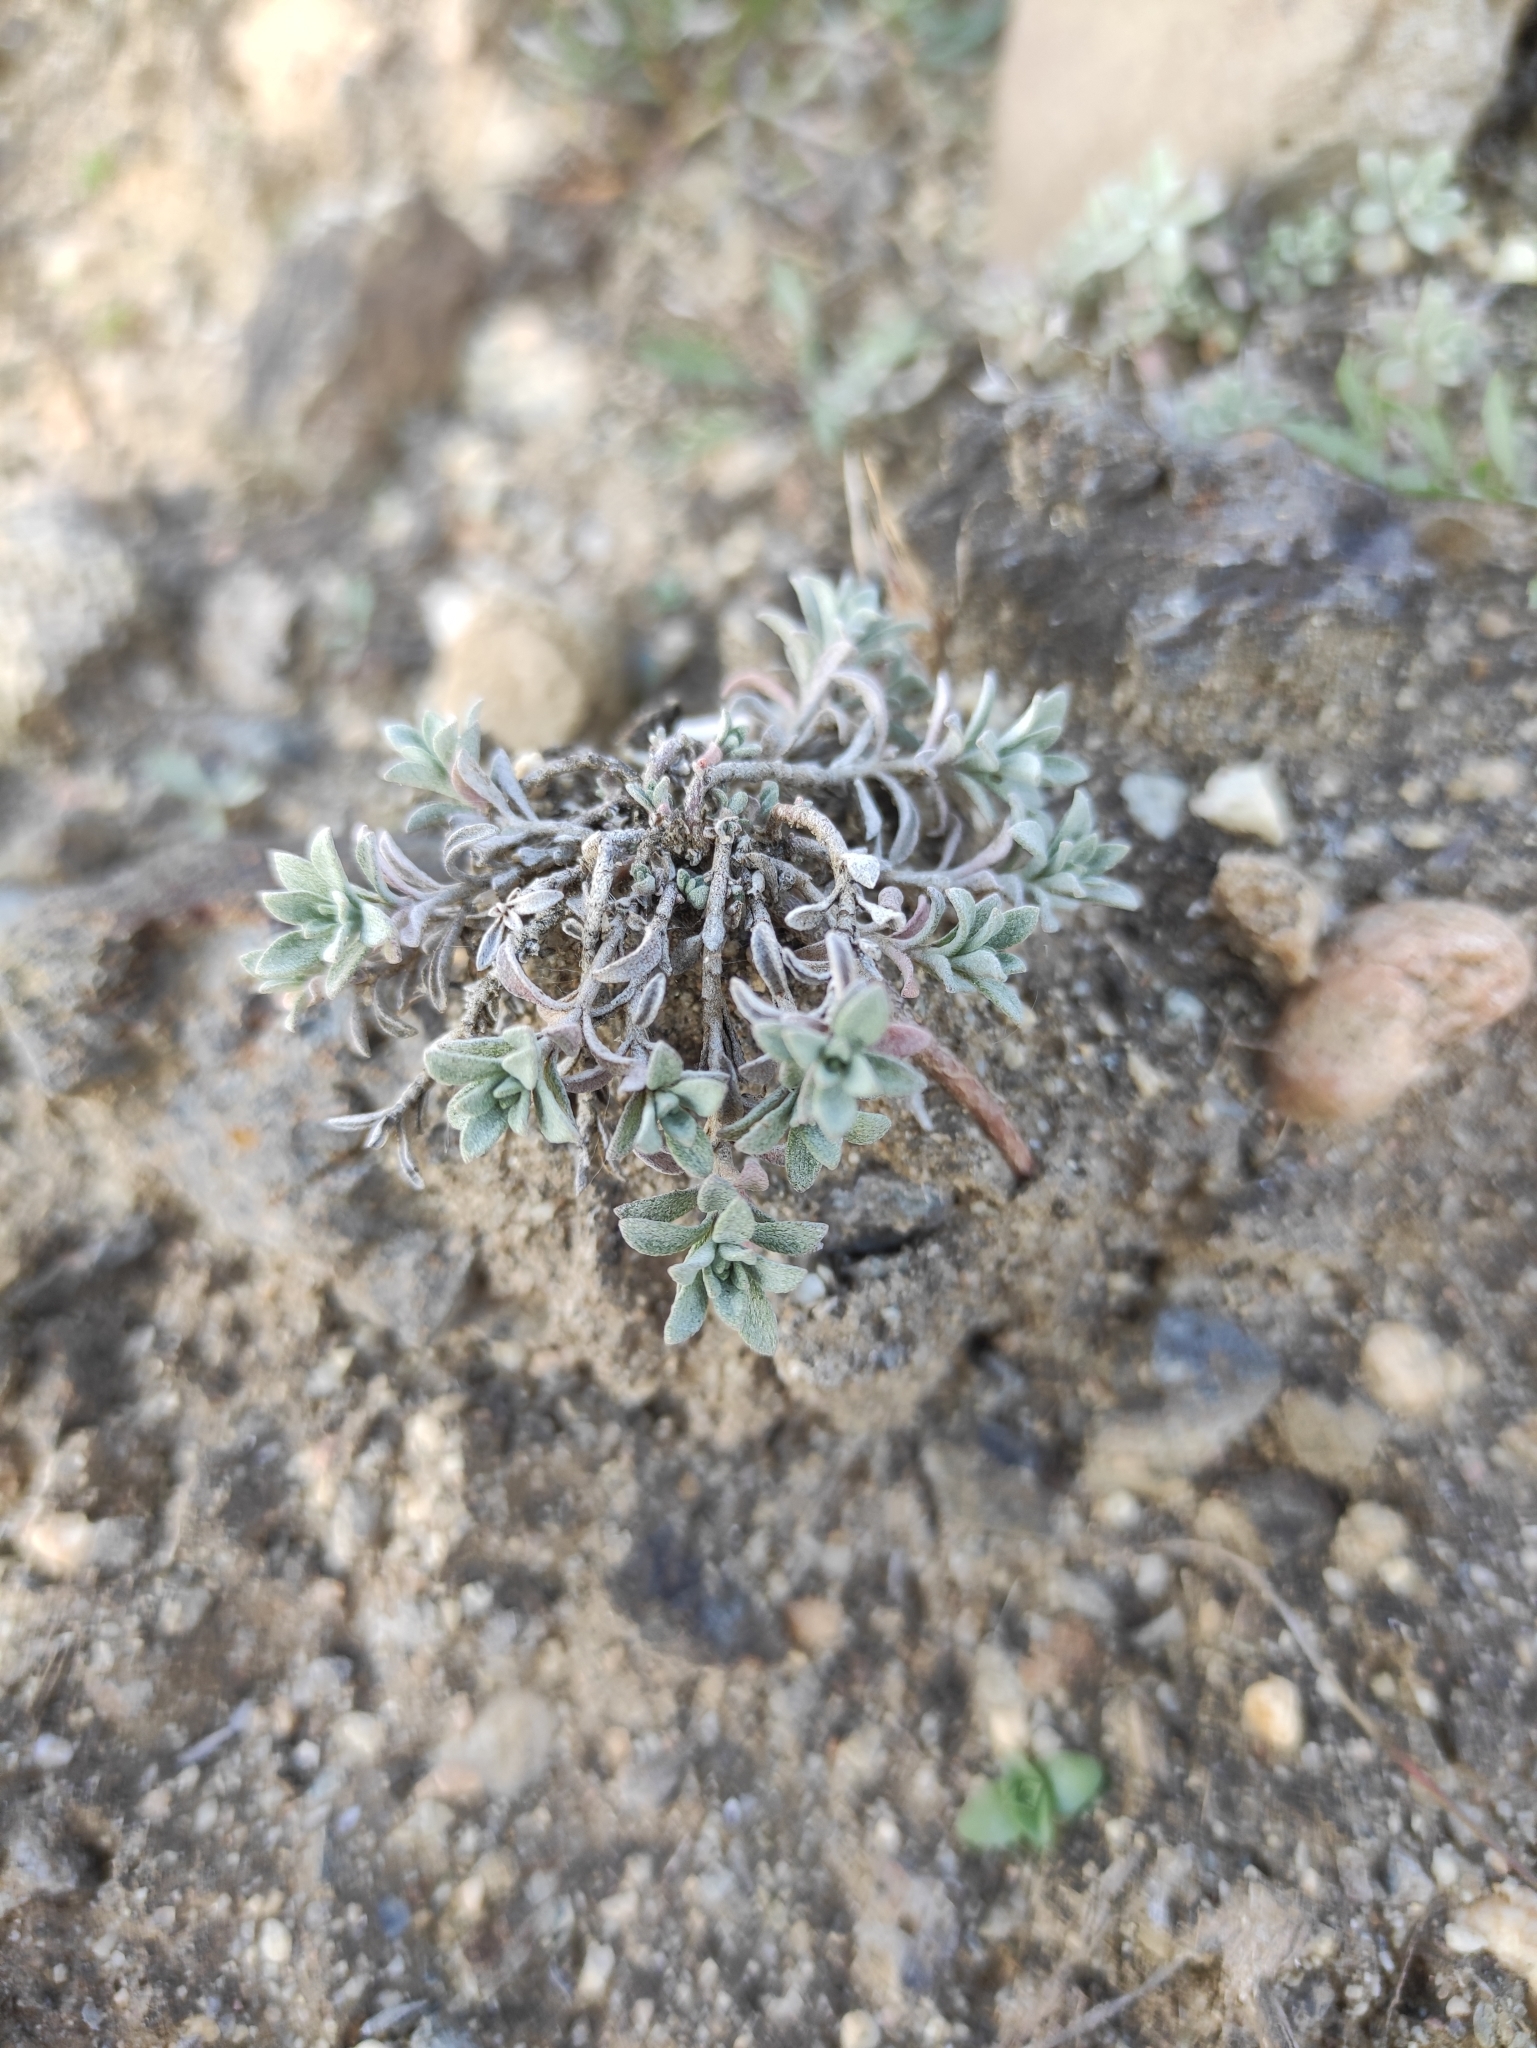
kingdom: Plantae
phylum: Tracheophyta
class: Magnoliopsida
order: Brassicales
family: Brassicaceae
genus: Odontarrhena
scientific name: Odontarrhena obovata
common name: American alyssum
